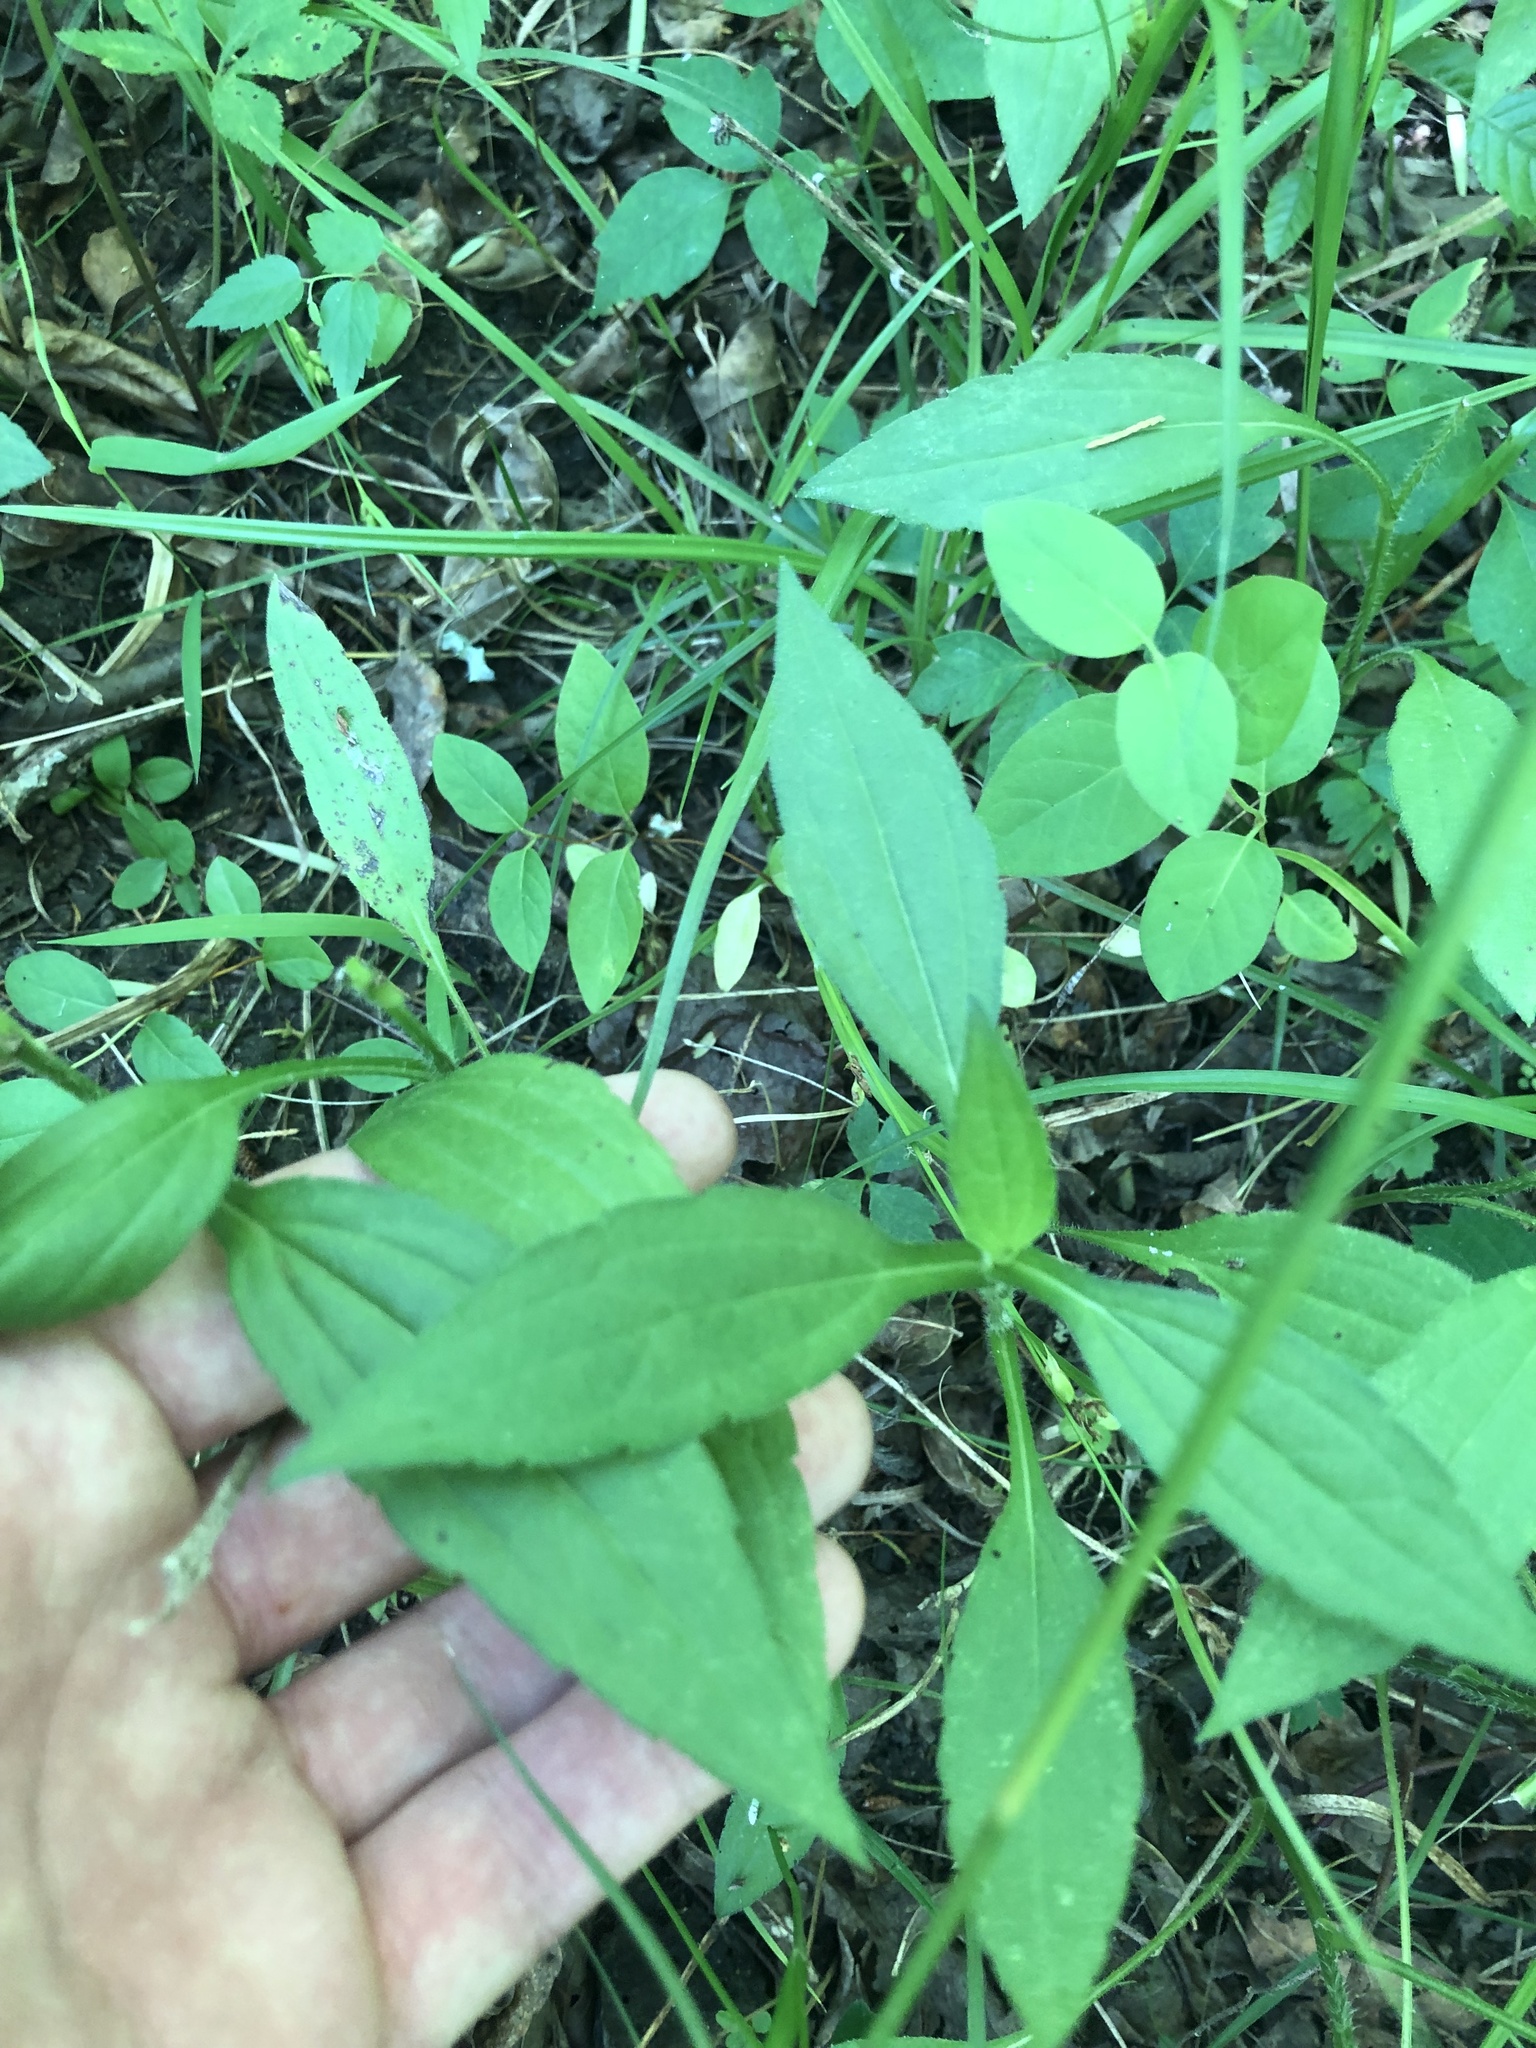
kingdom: Plantae
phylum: Tracheophyta
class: Magnoliopsida
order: Asterales
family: Asteraceae
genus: Rudbeckia
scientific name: Rudbeckia terranigrae
